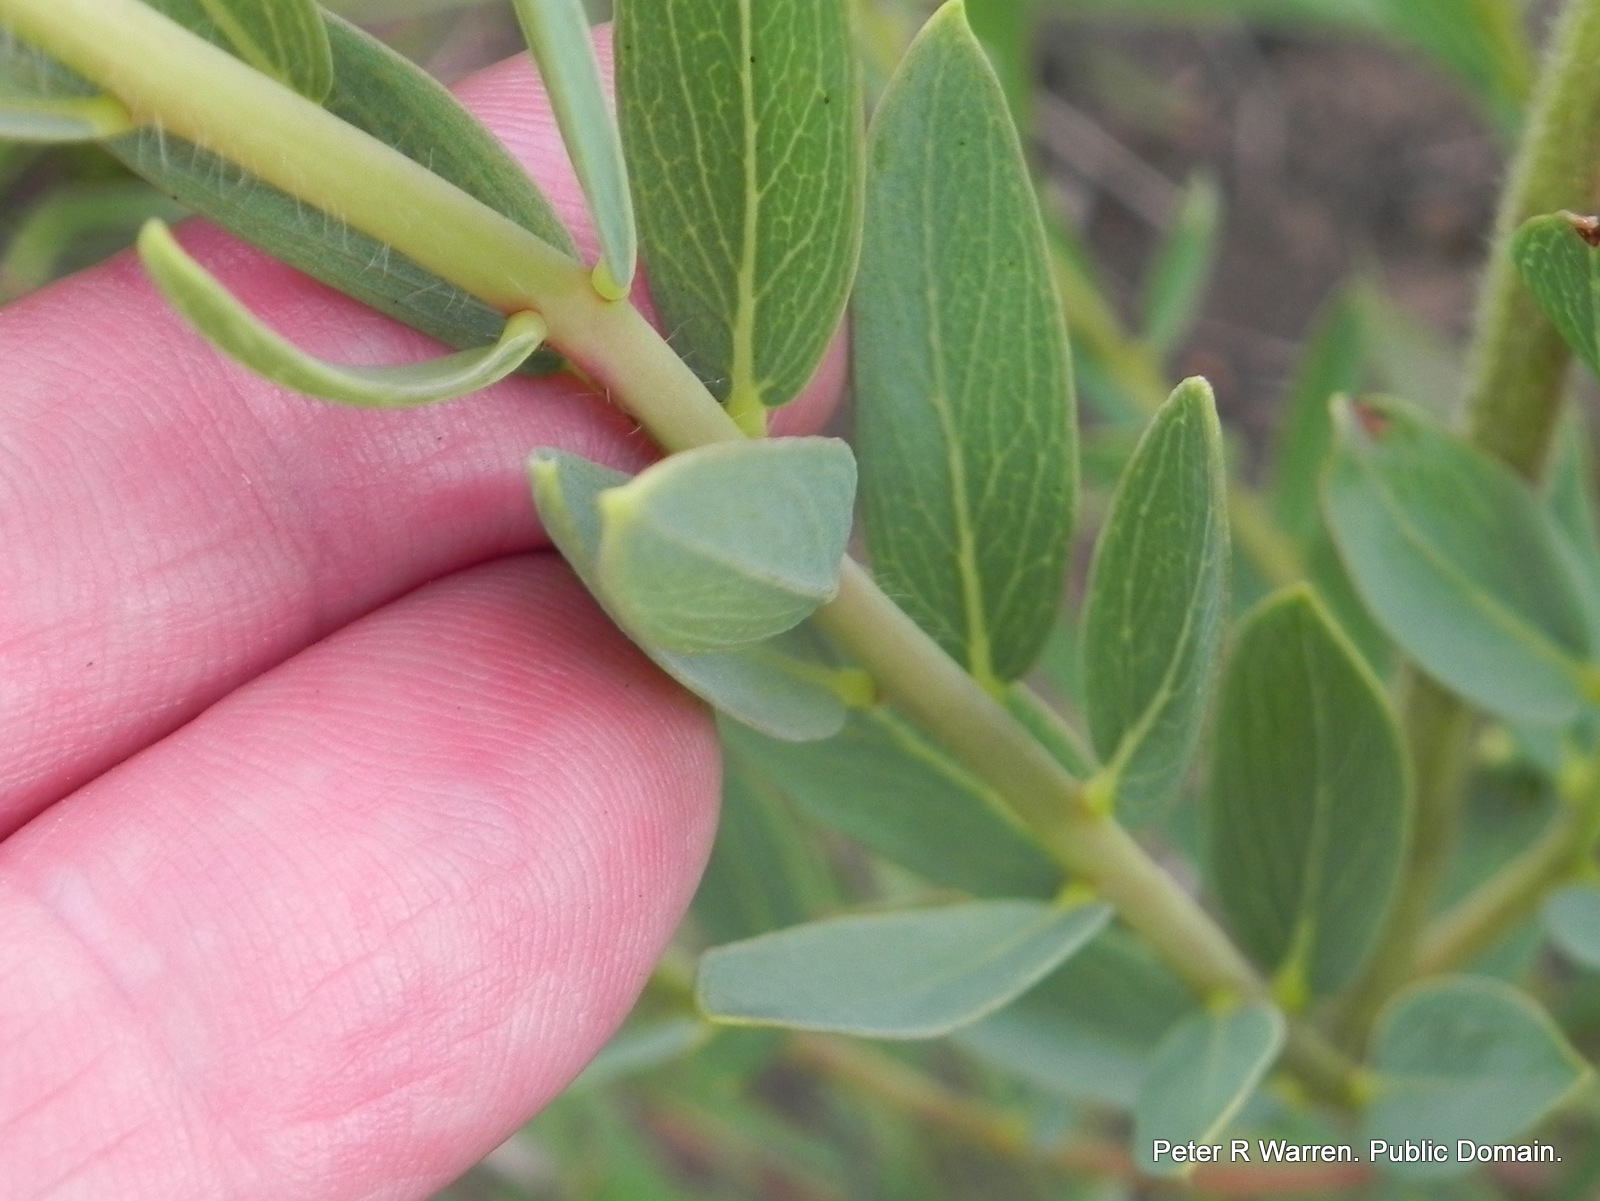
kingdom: Plantae
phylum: Tracheophyta
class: Magnoliopsida
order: Malvales
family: Thymelaeaceae
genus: Gnidia
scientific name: Gnidia kraussiana
